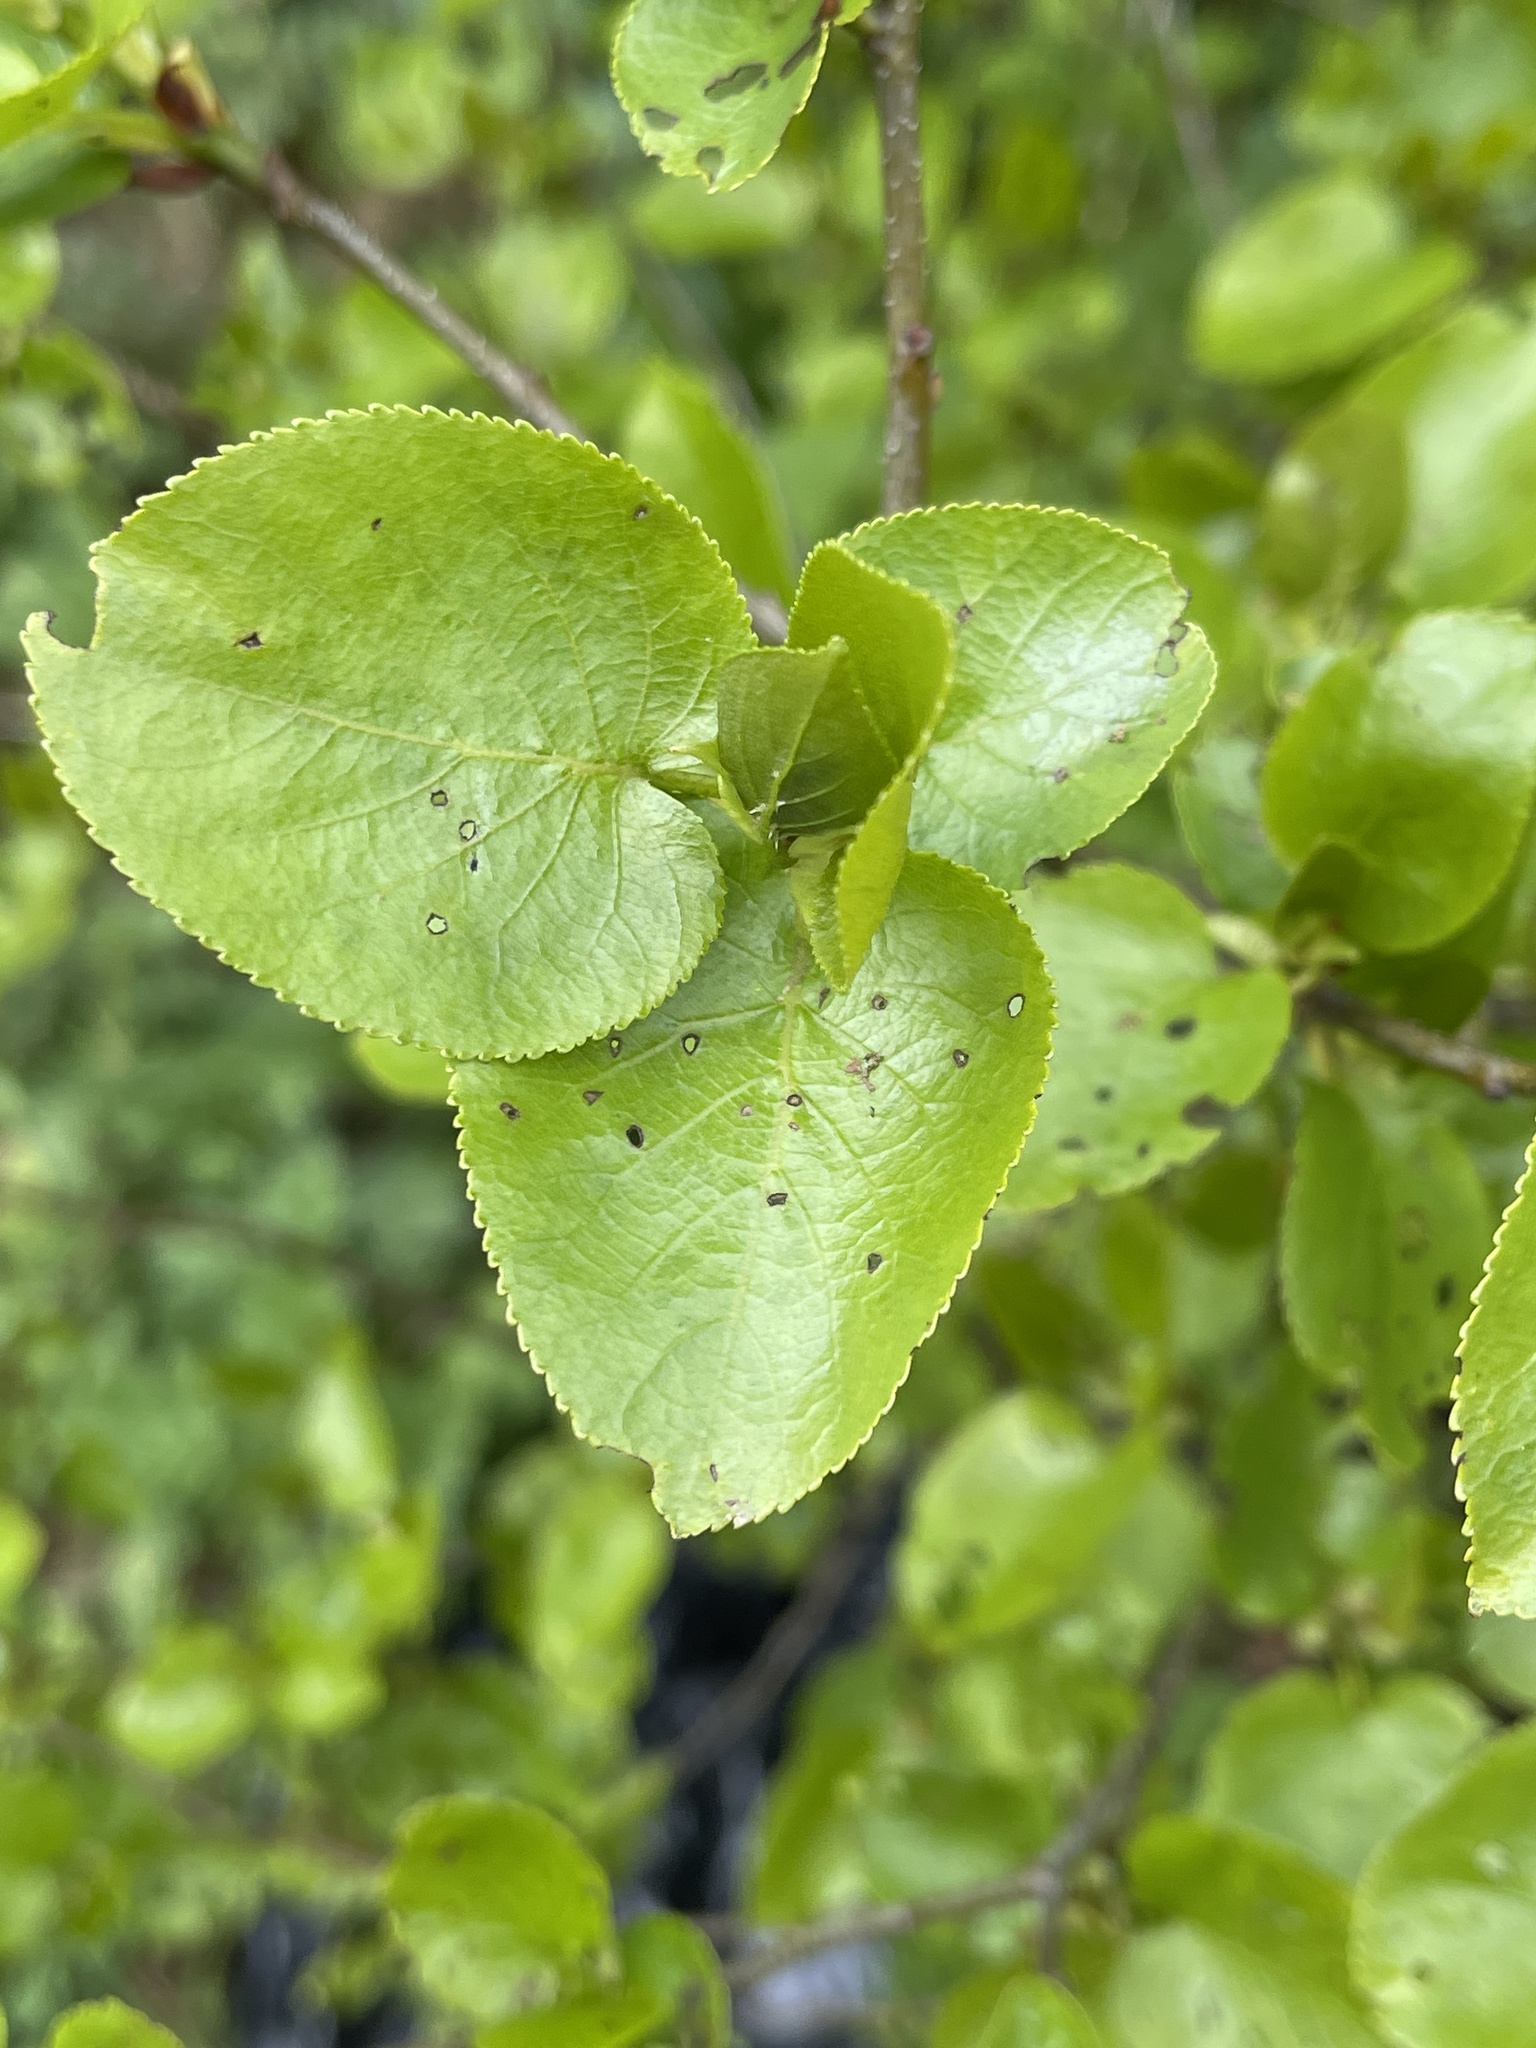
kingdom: Plantae
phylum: Tracheophyta
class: Magnoliopsida
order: Fagales
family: Betulaceae
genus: Alnus
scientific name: Alnus cordata
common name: Italian alder
